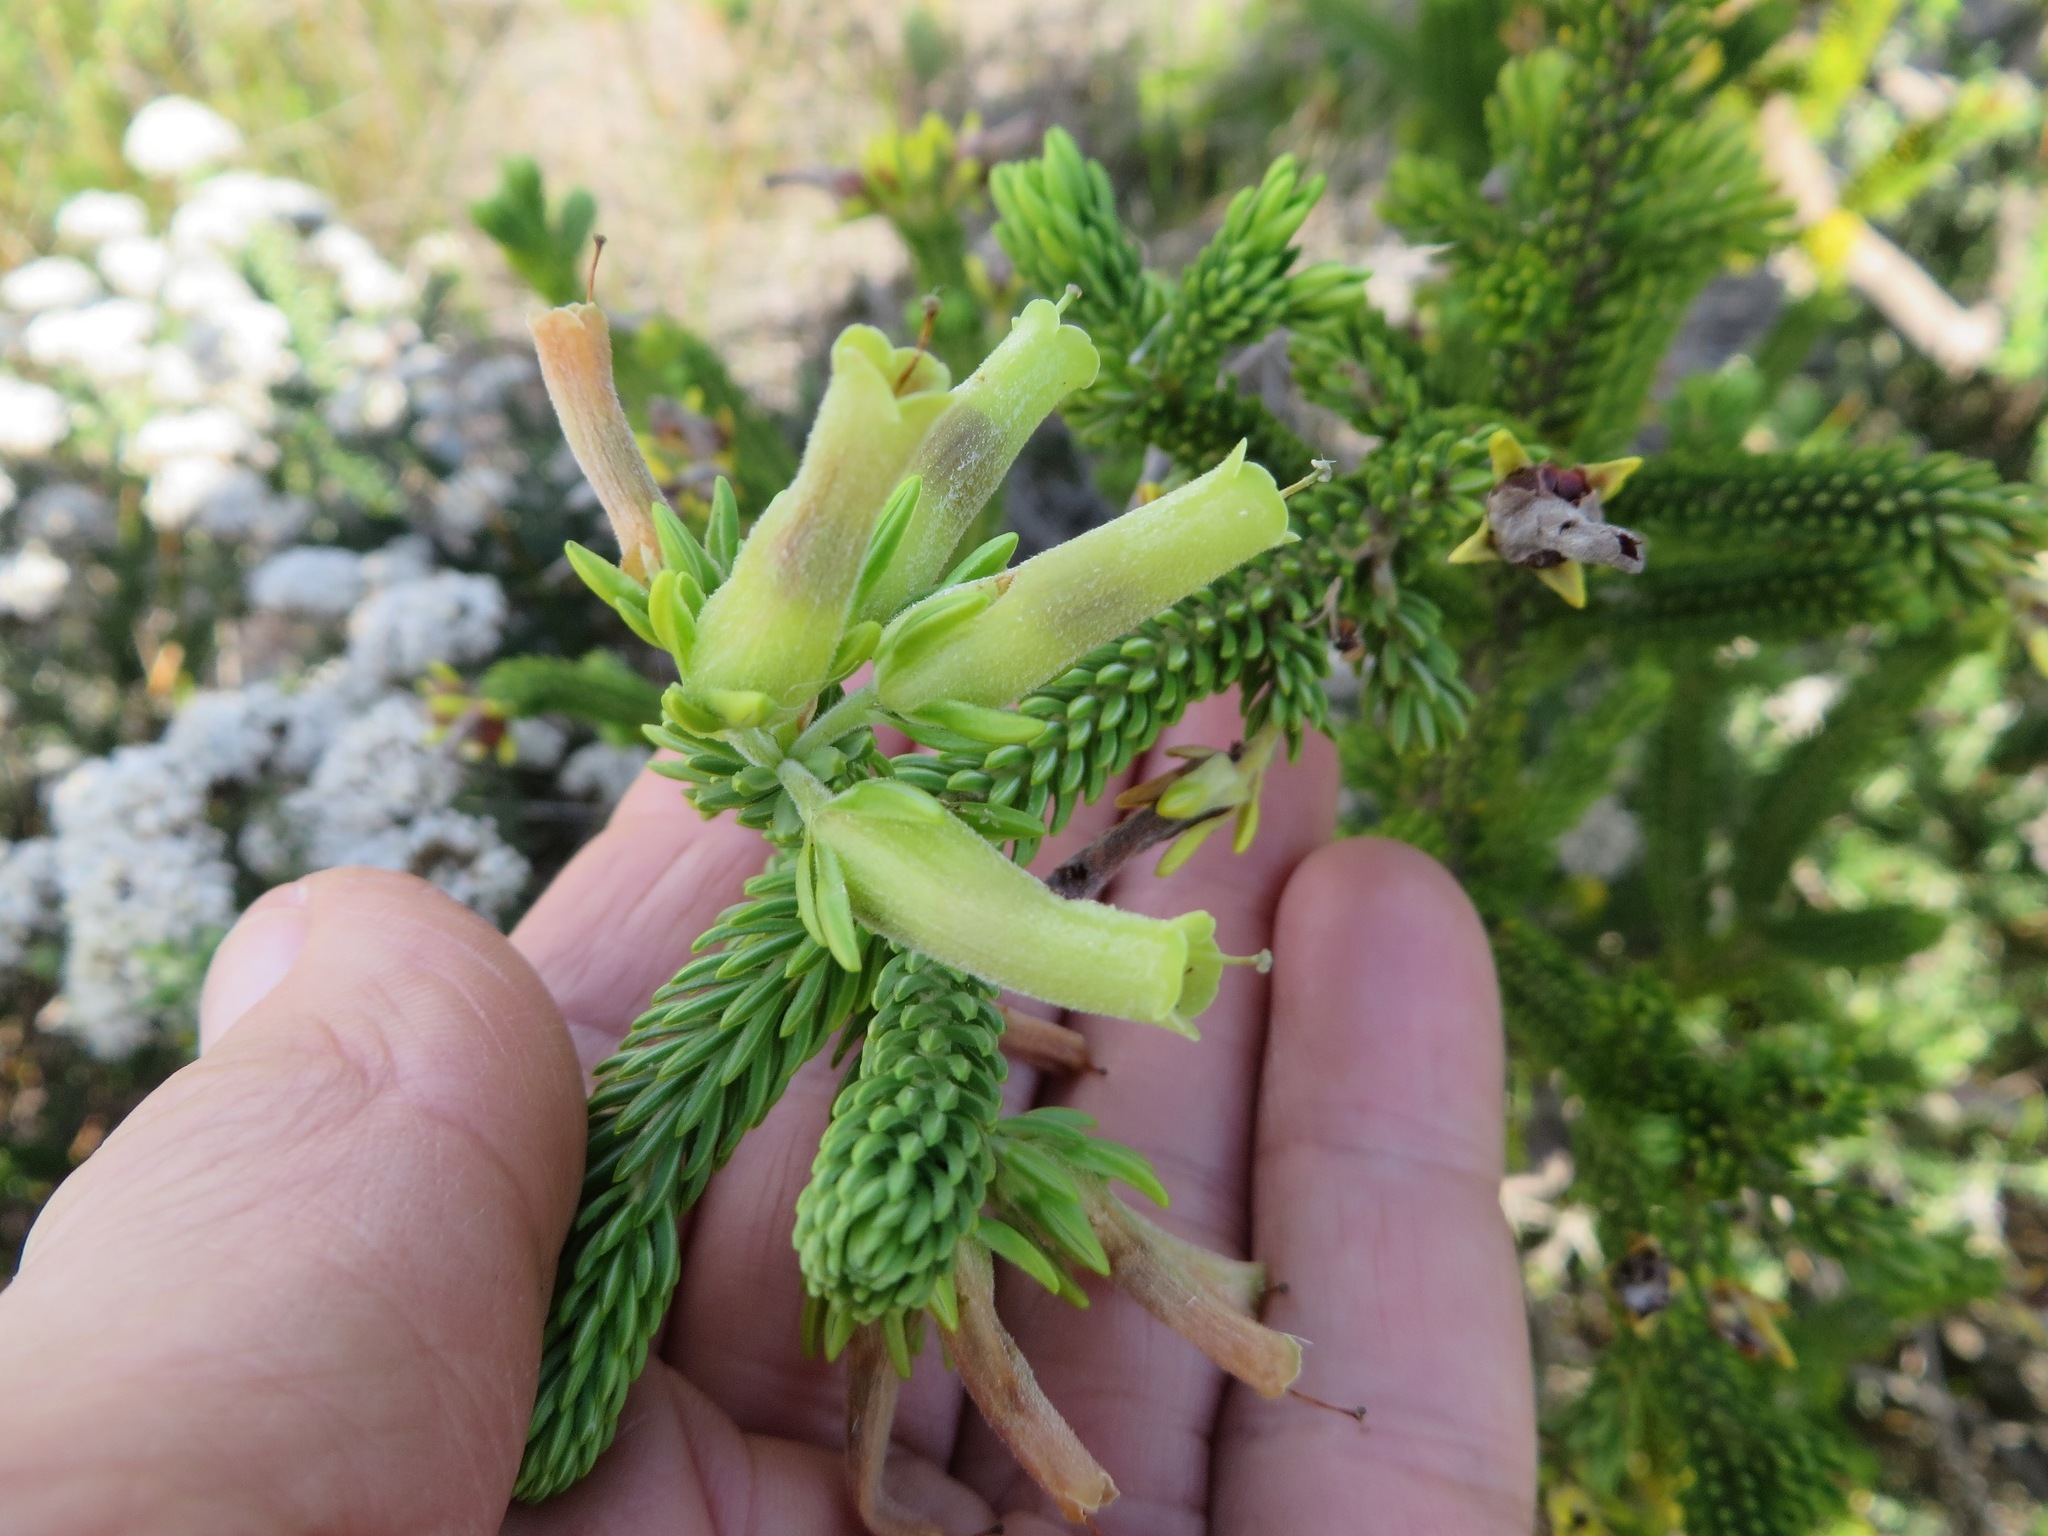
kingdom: Plantae
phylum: Tracheophyta
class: Magnoliopsida
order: Ericales
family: Ericaceae
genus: Erica
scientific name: Erica brachialis
